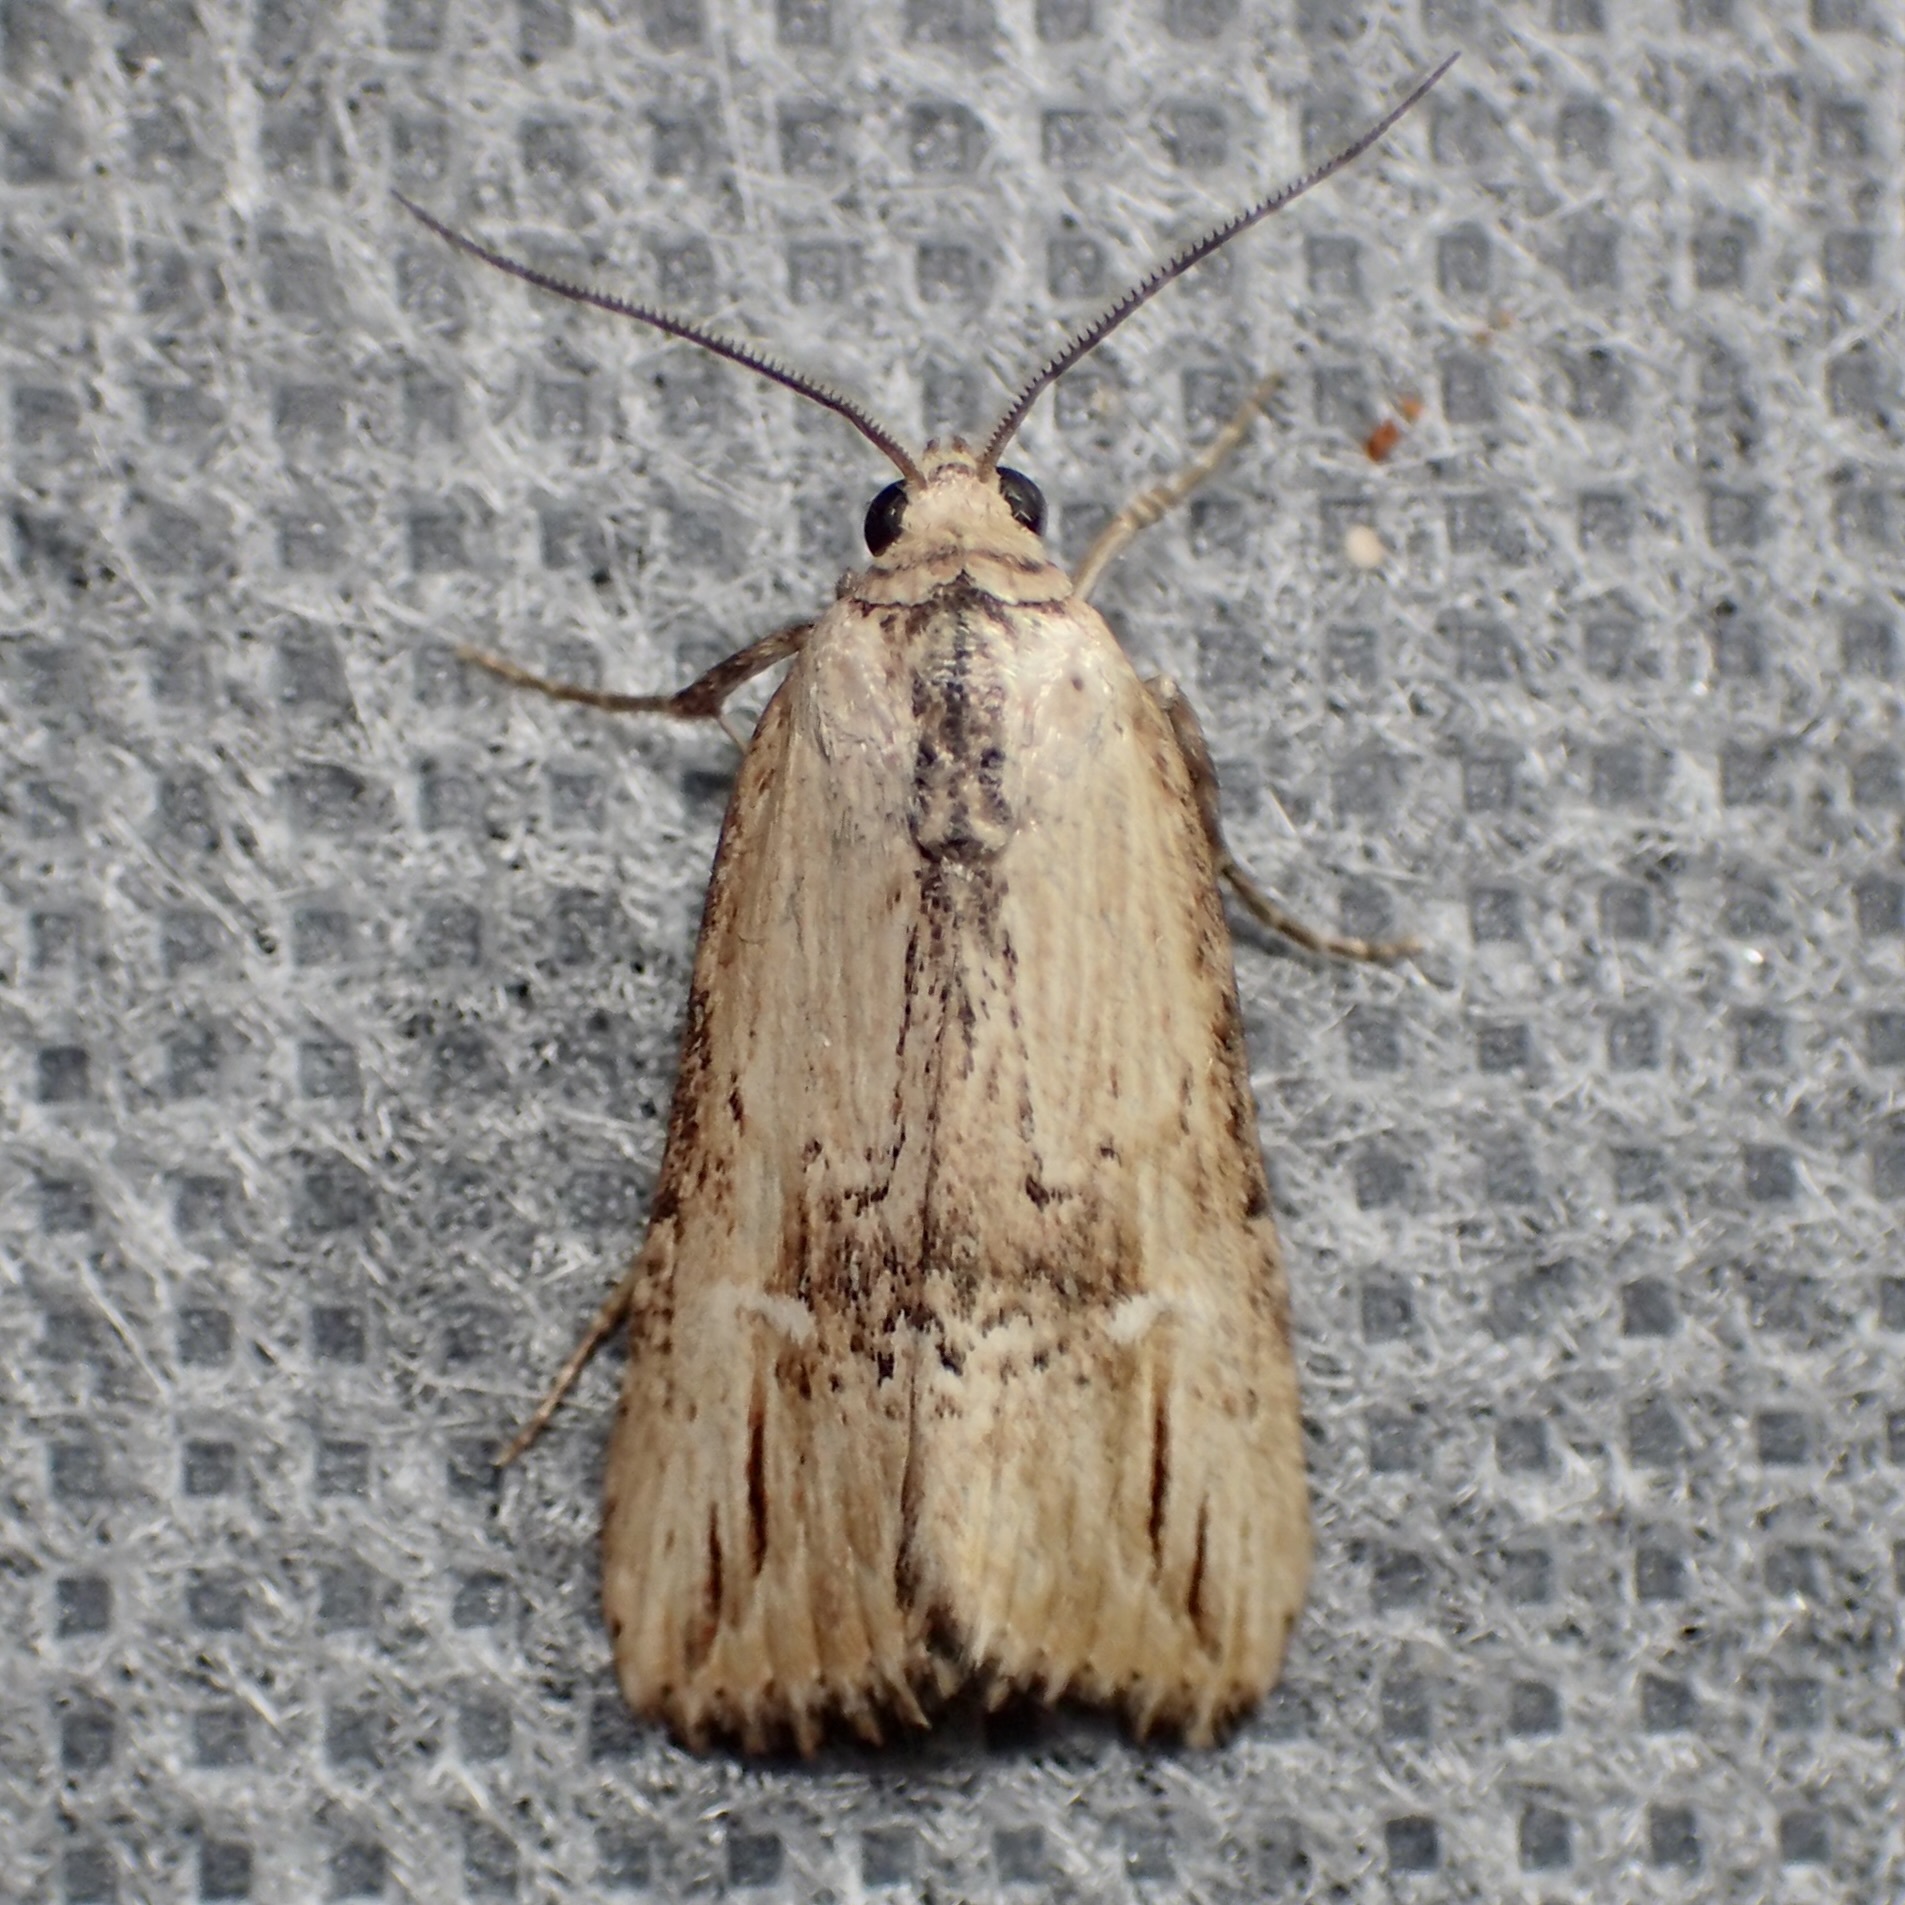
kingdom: Animalia
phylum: Arthropoda
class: Insecta
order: Lepidoptera
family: Noctuidae
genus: Crambodes
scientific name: Crambodes talidiformis
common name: Verbena moth
